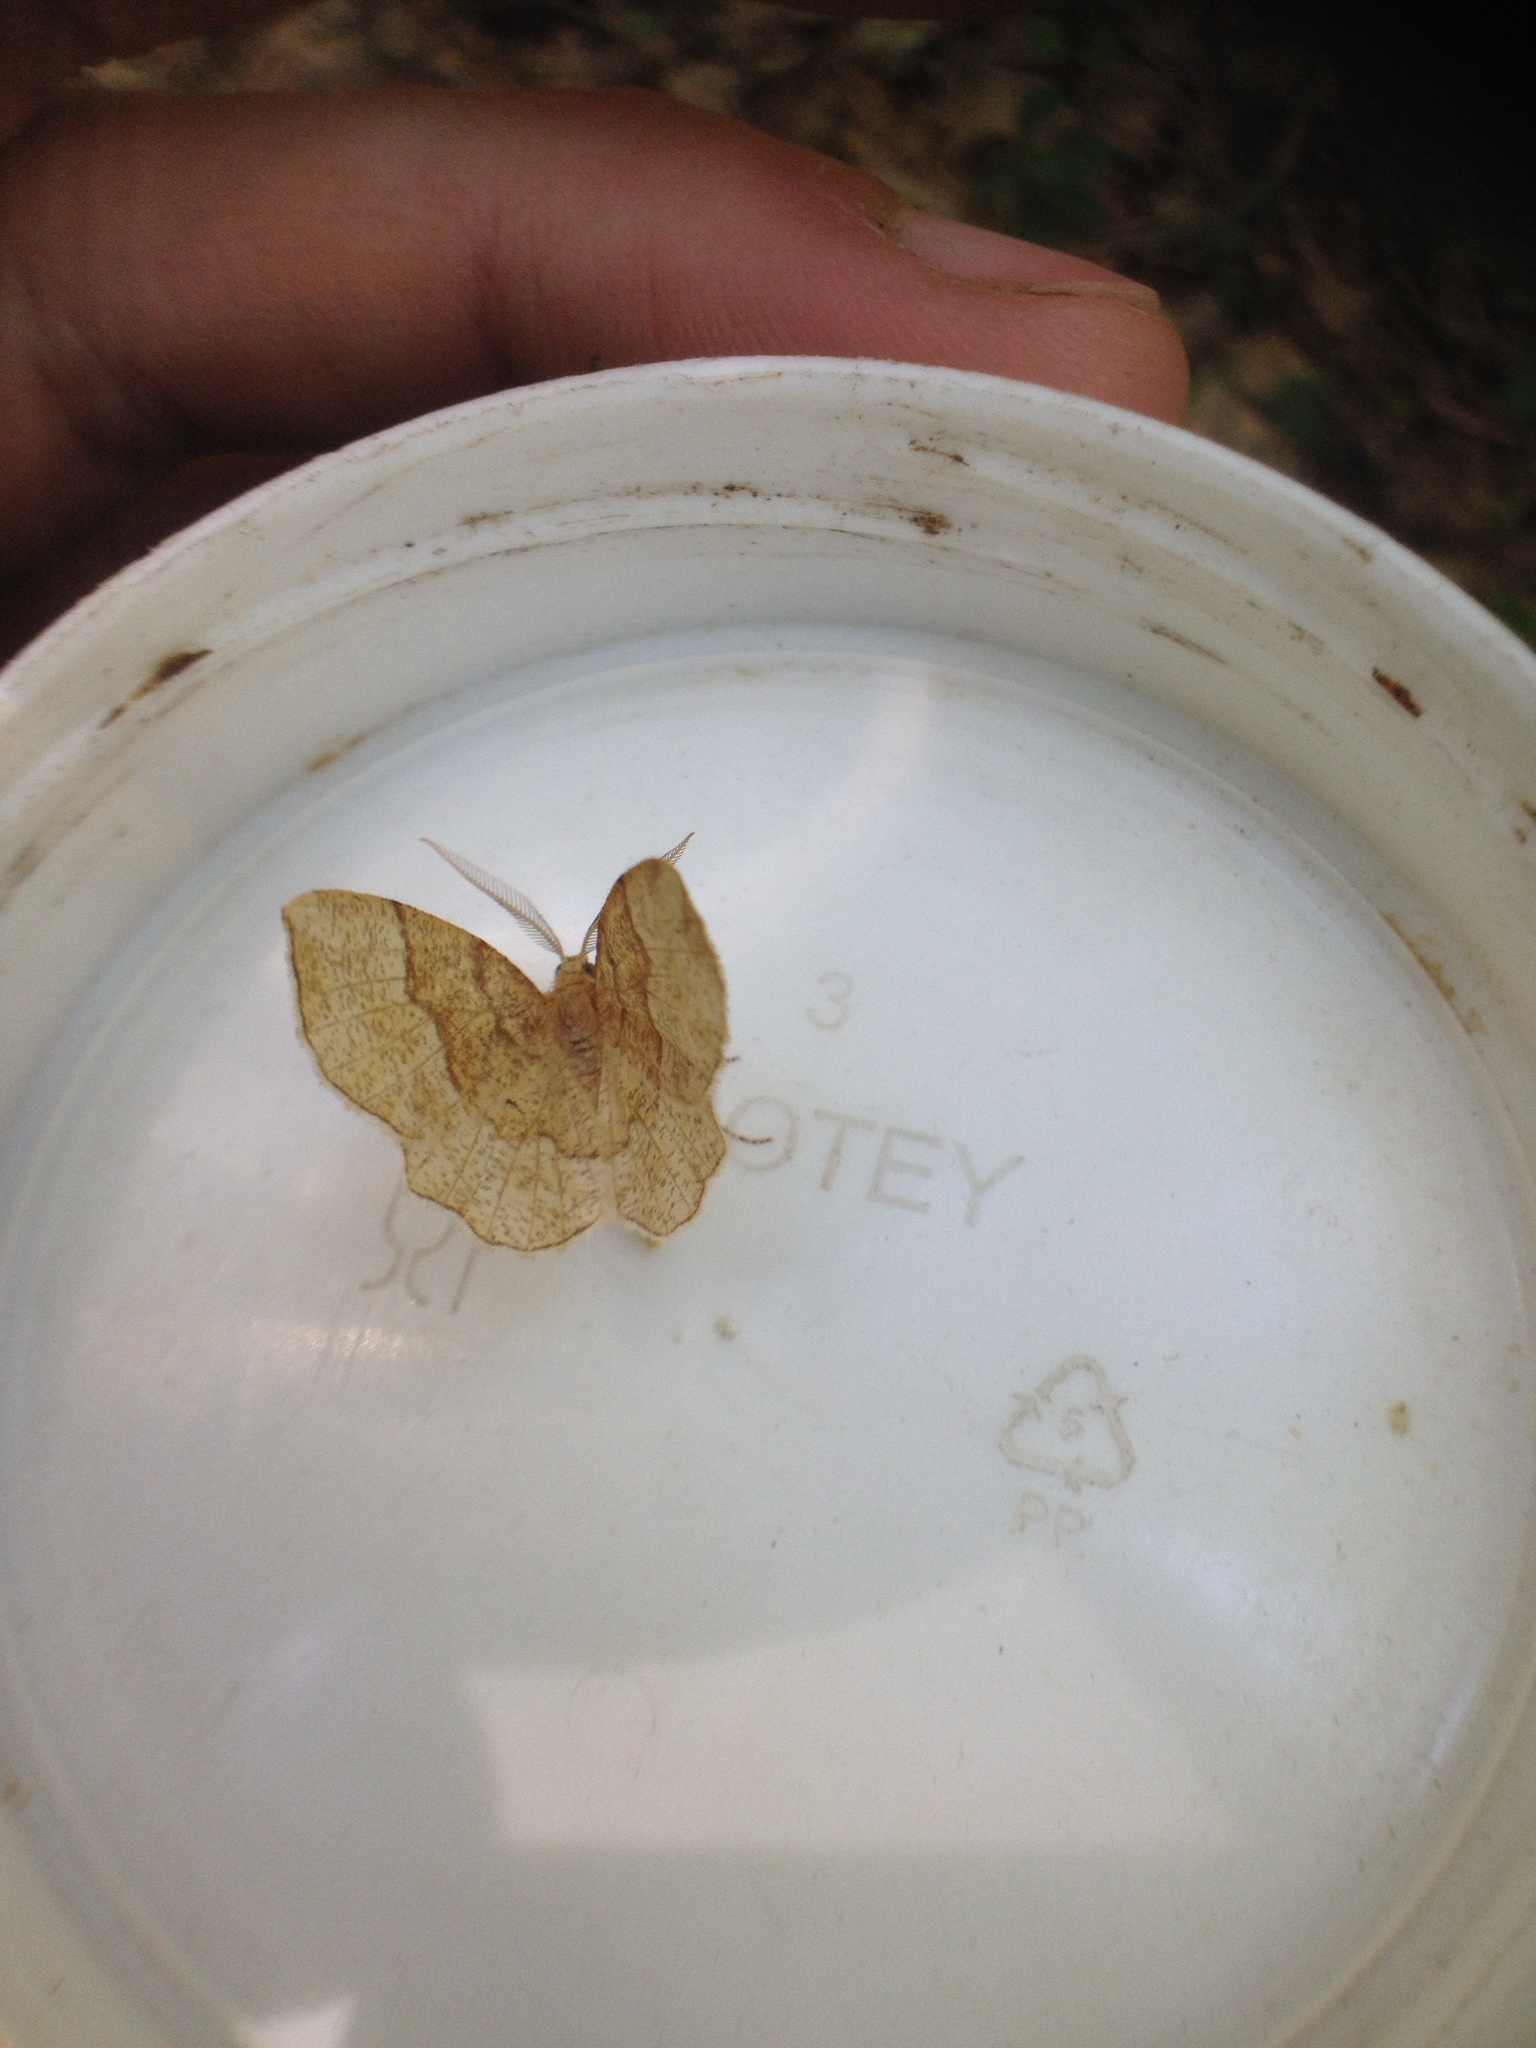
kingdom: Animalia
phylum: Arthropoda
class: Insecta
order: Lepidoptera
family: Geometridae
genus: Cepphis
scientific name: Cepphis advenaria
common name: Little thorn
